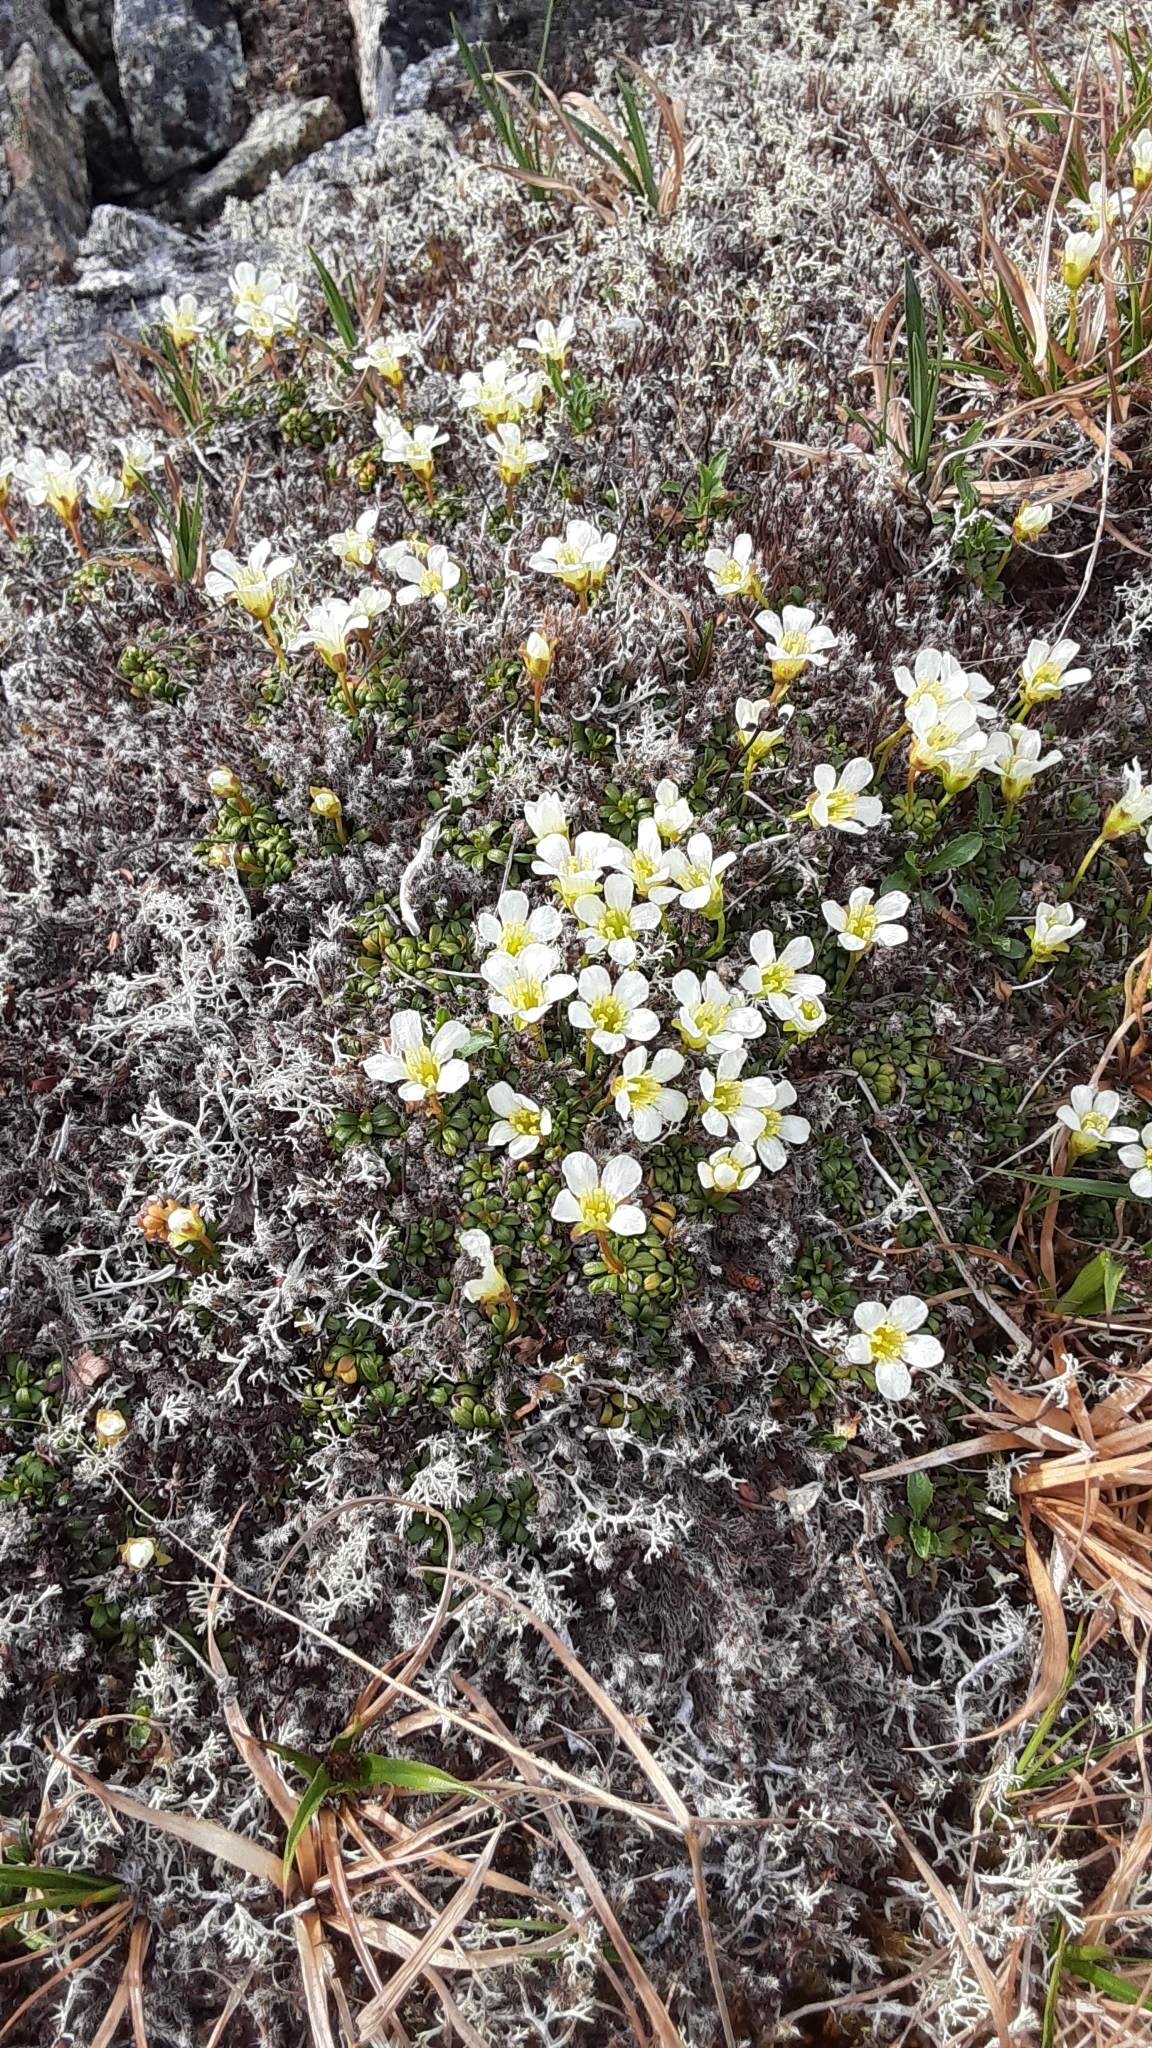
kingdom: Plantae
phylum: Tracheophyta
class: Magnoliopsida
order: Ericales
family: Diapensiaceae
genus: Diapensia
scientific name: Diapensia obovata
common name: Alaska diapensia
